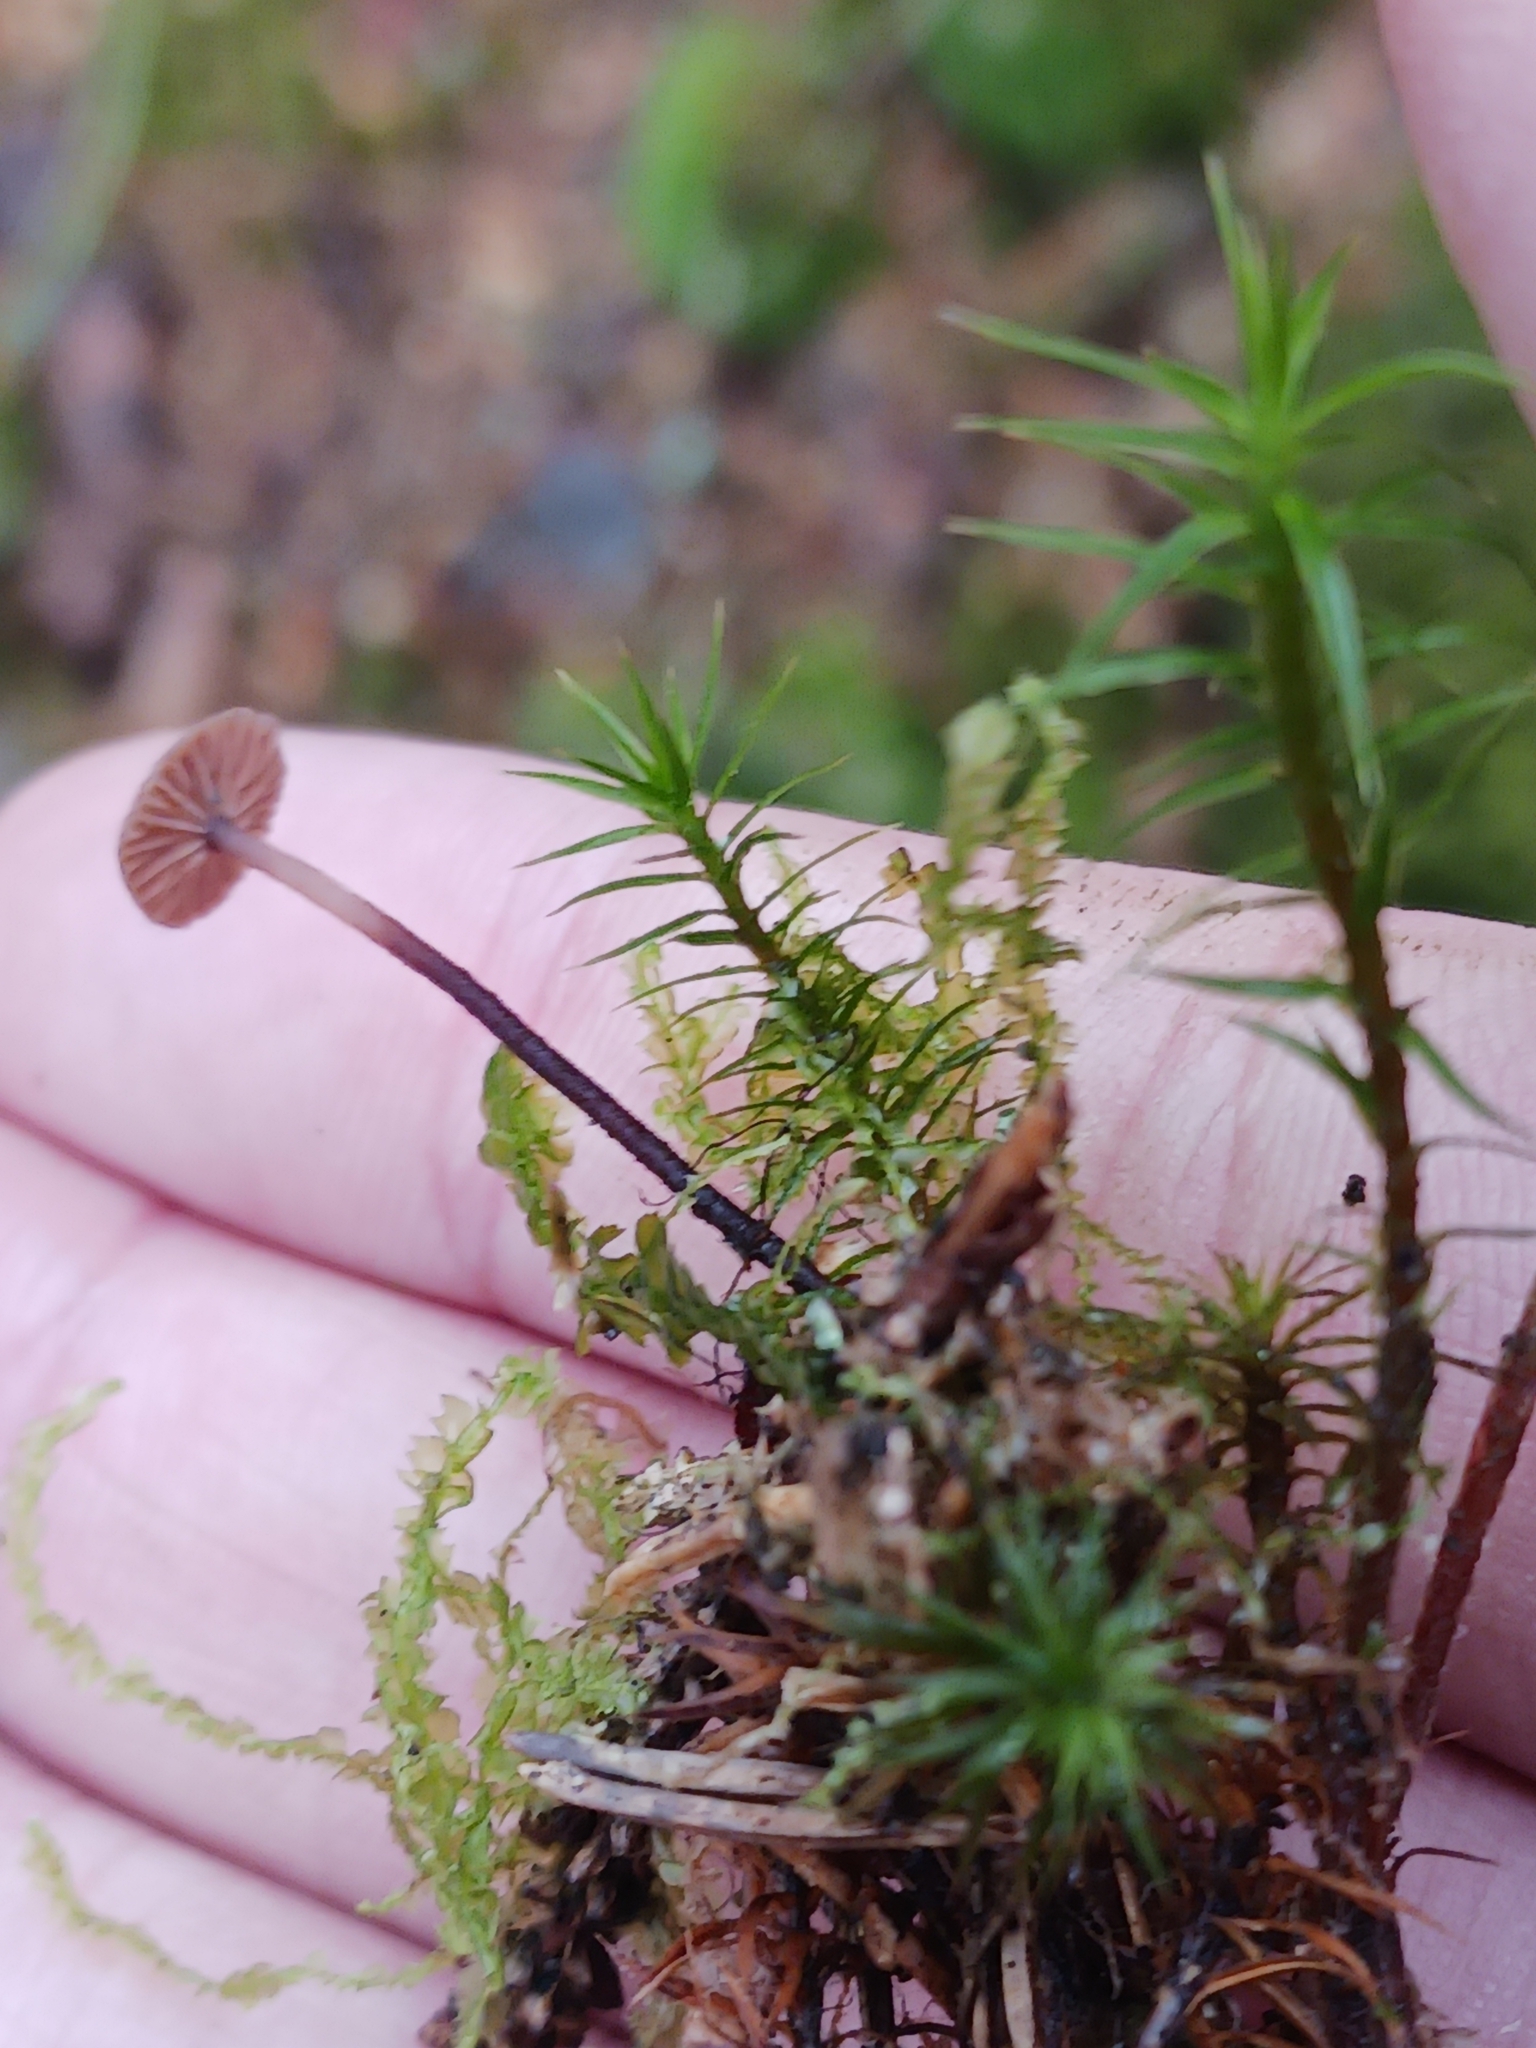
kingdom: Fungi
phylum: Basidiomycota
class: Agaricomycetes
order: Agaricales
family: Omphalotaceae
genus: Gymnopus
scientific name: Gymnopus androsaceus
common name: Horse-hair fungus
